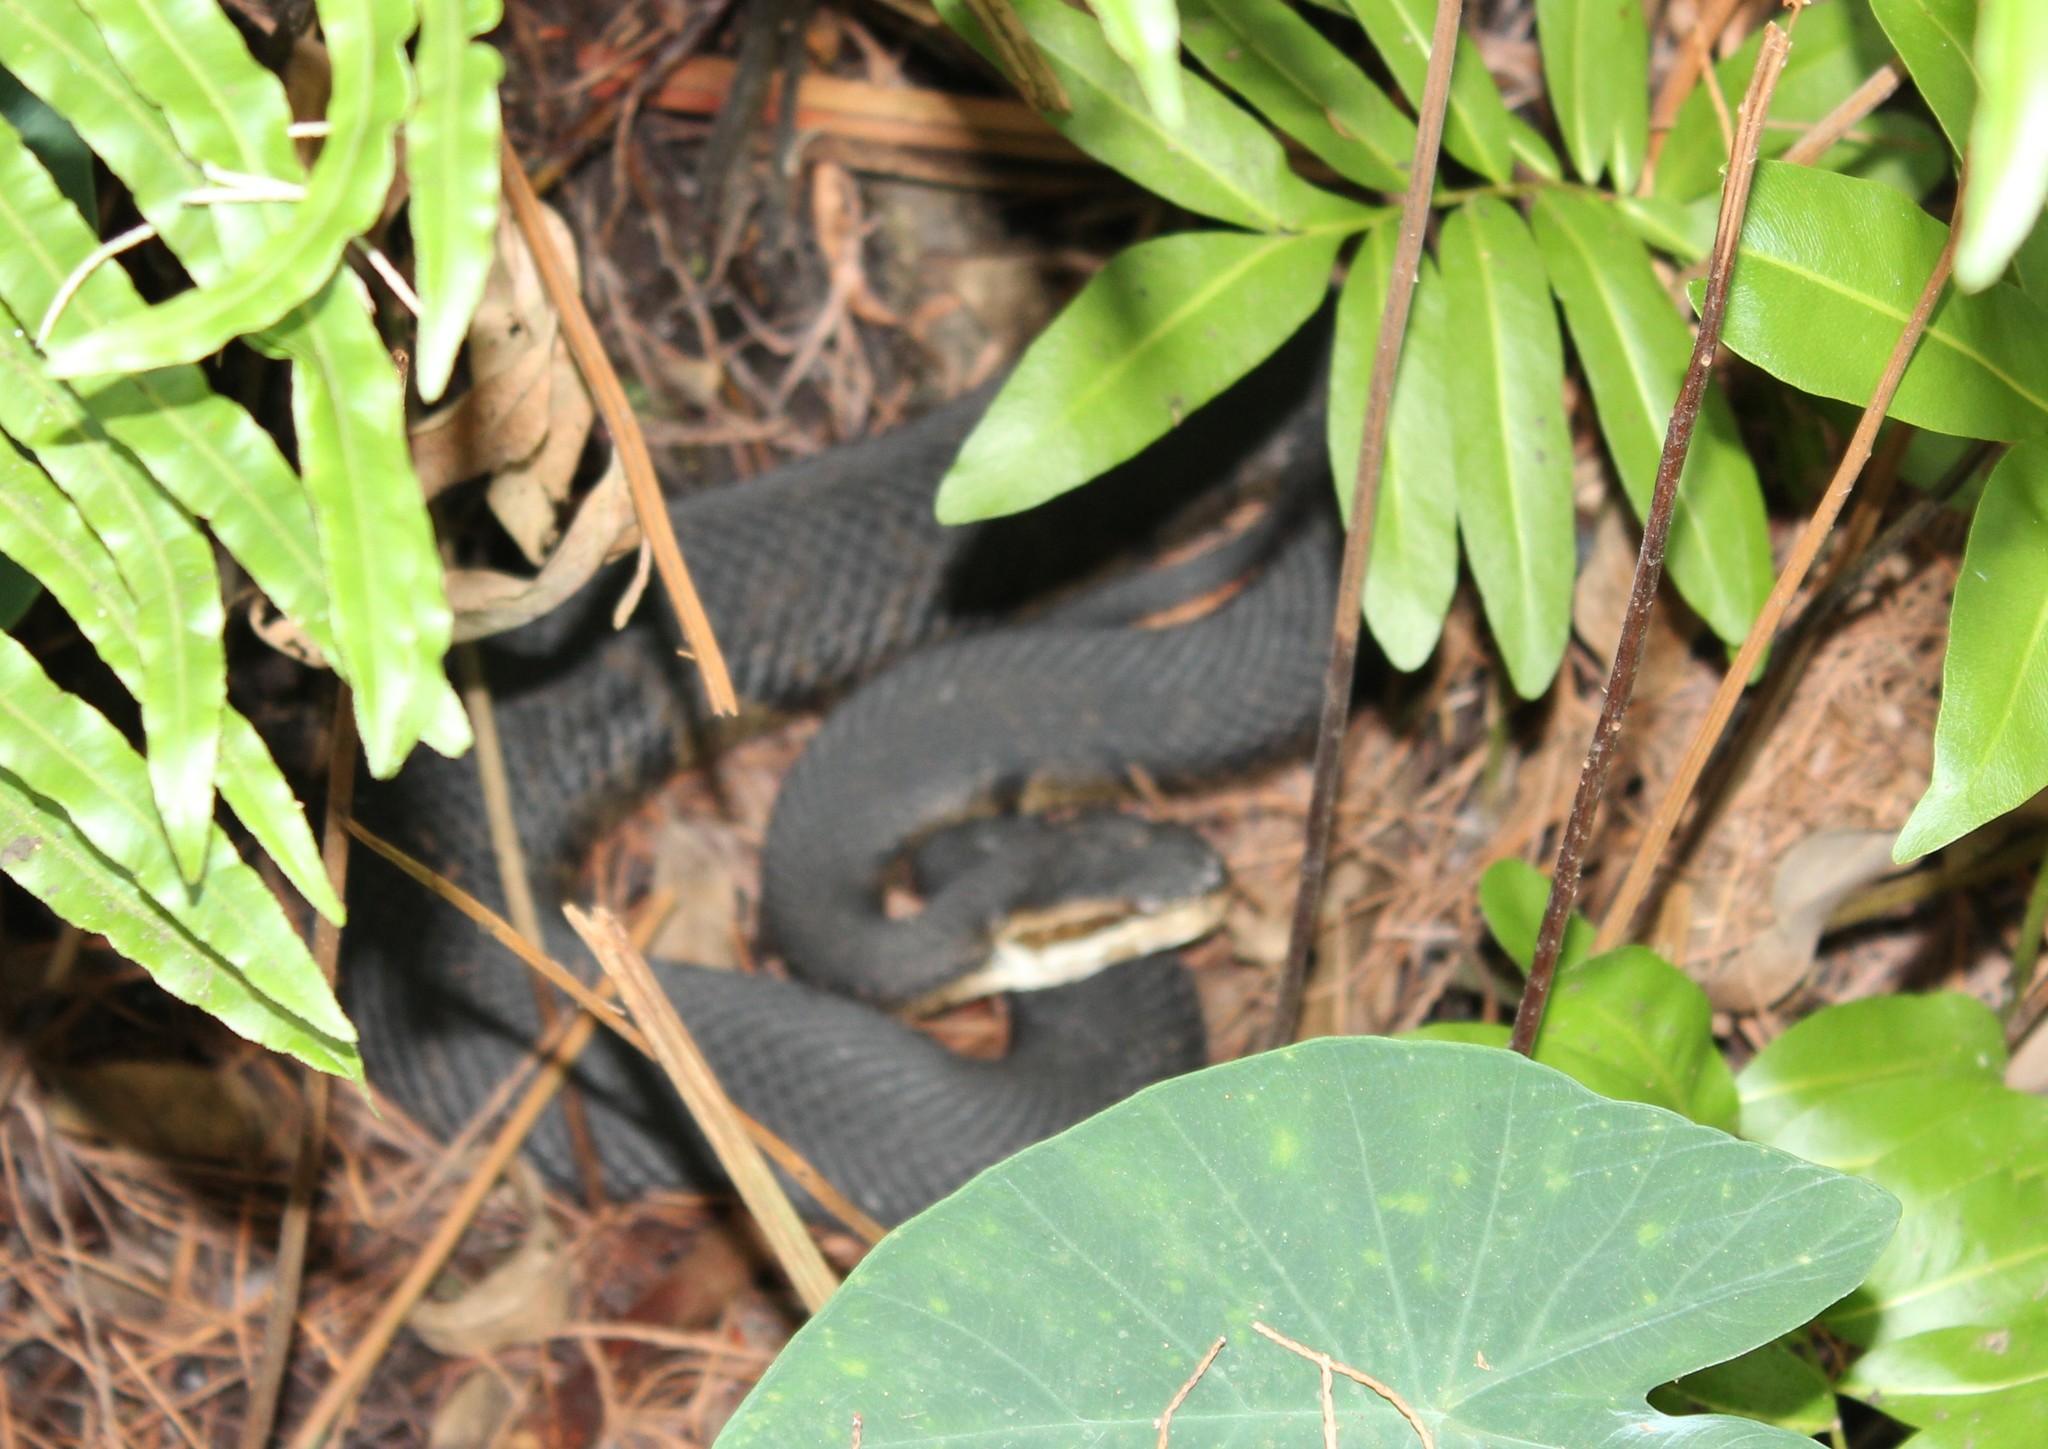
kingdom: Animalia
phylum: Chordata
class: Squamata
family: Viperidae
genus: Agkistrodon
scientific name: Agkistrodon conanti
